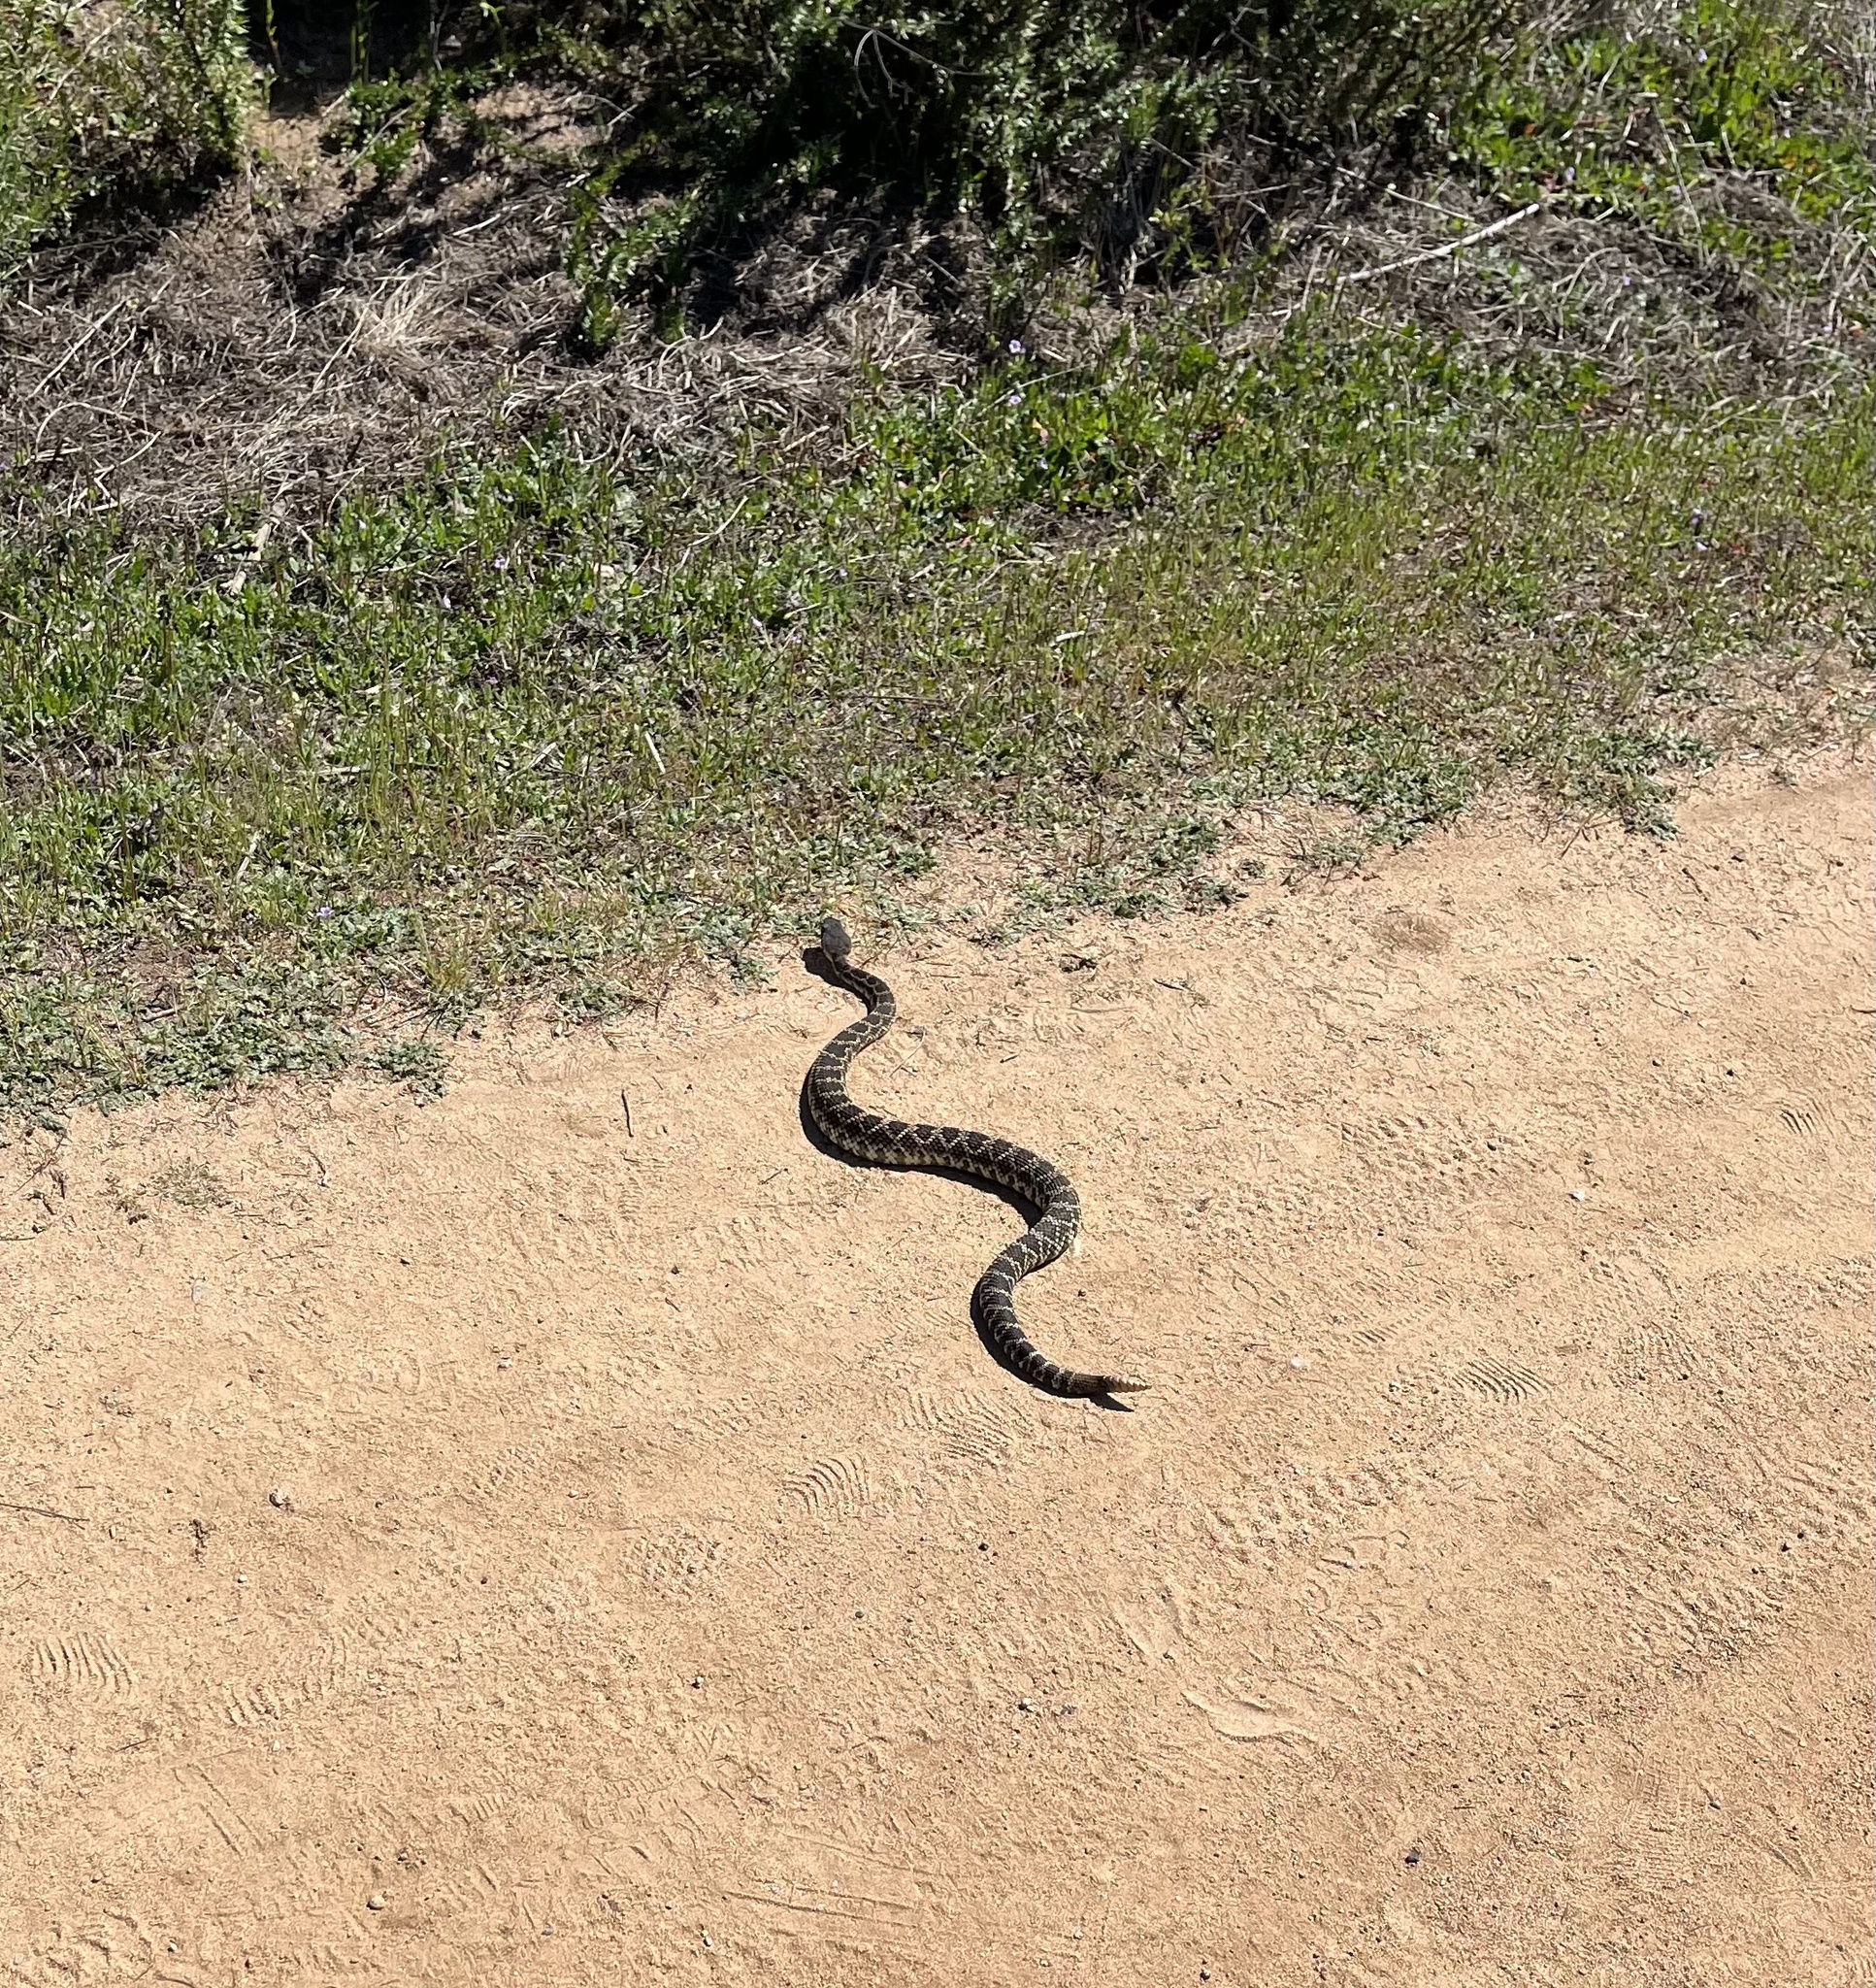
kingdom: Animalia
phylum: Chordata
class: Squamata
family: Viperidae
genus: Crotalus
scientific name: Crotalus oreganus
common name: Abyssus
